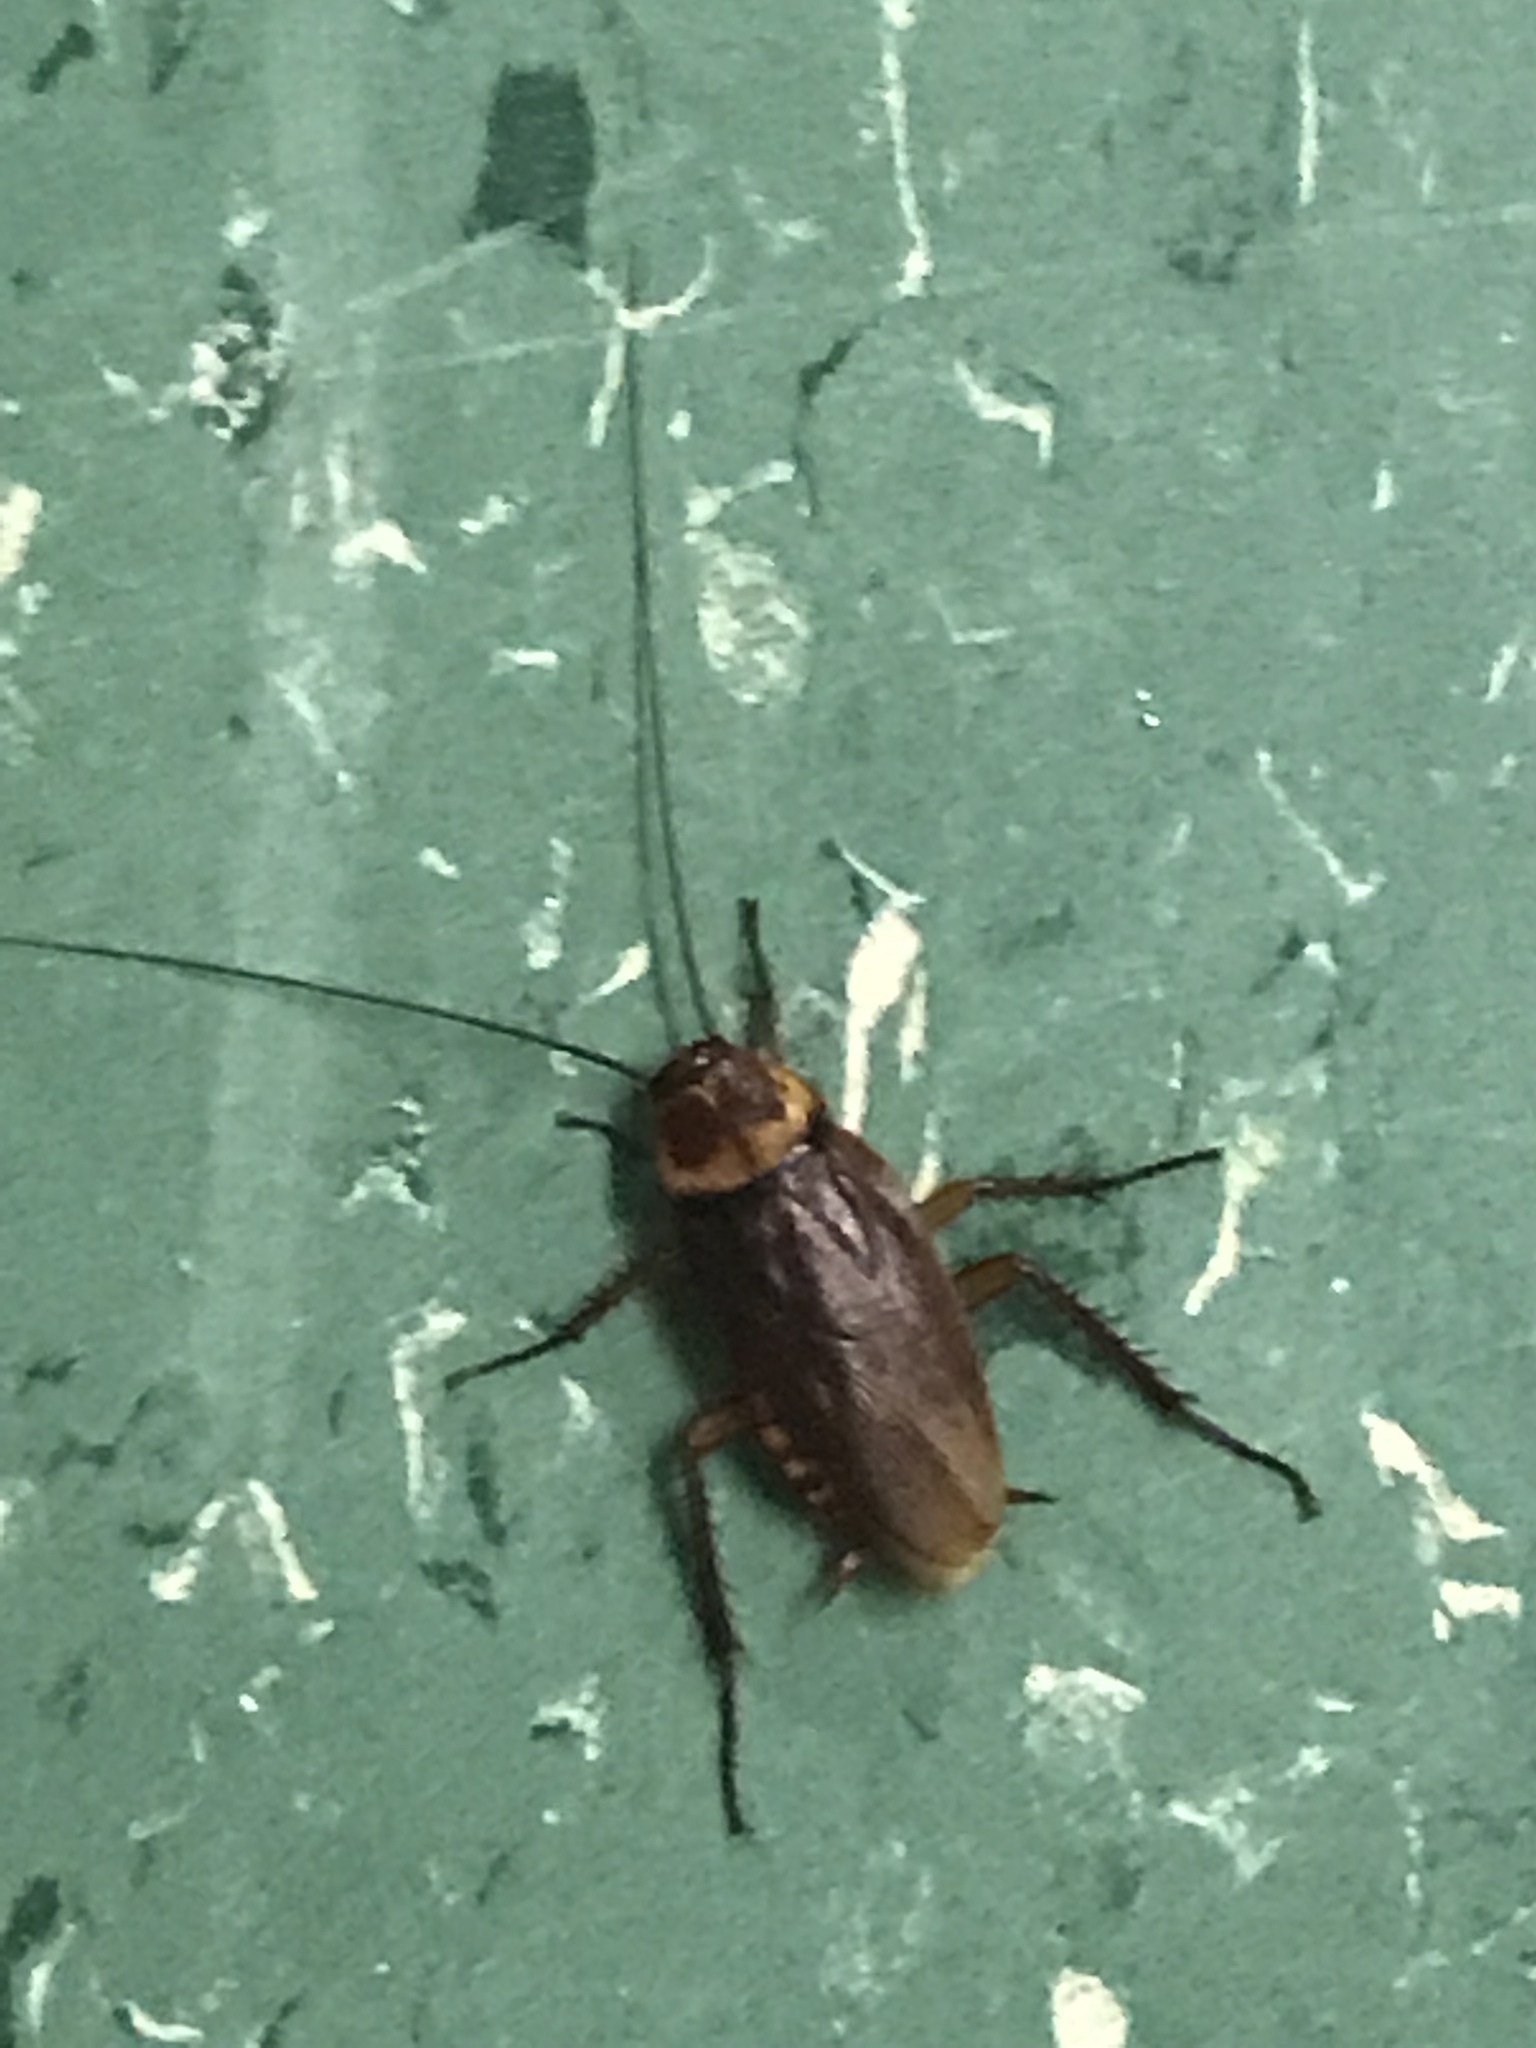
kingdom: Animalia
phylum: Arthropoda
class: Insecta
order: Blattodea
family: Blattidae
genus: Periplaneta
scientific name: Periplaneta americana
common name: American cockroach
